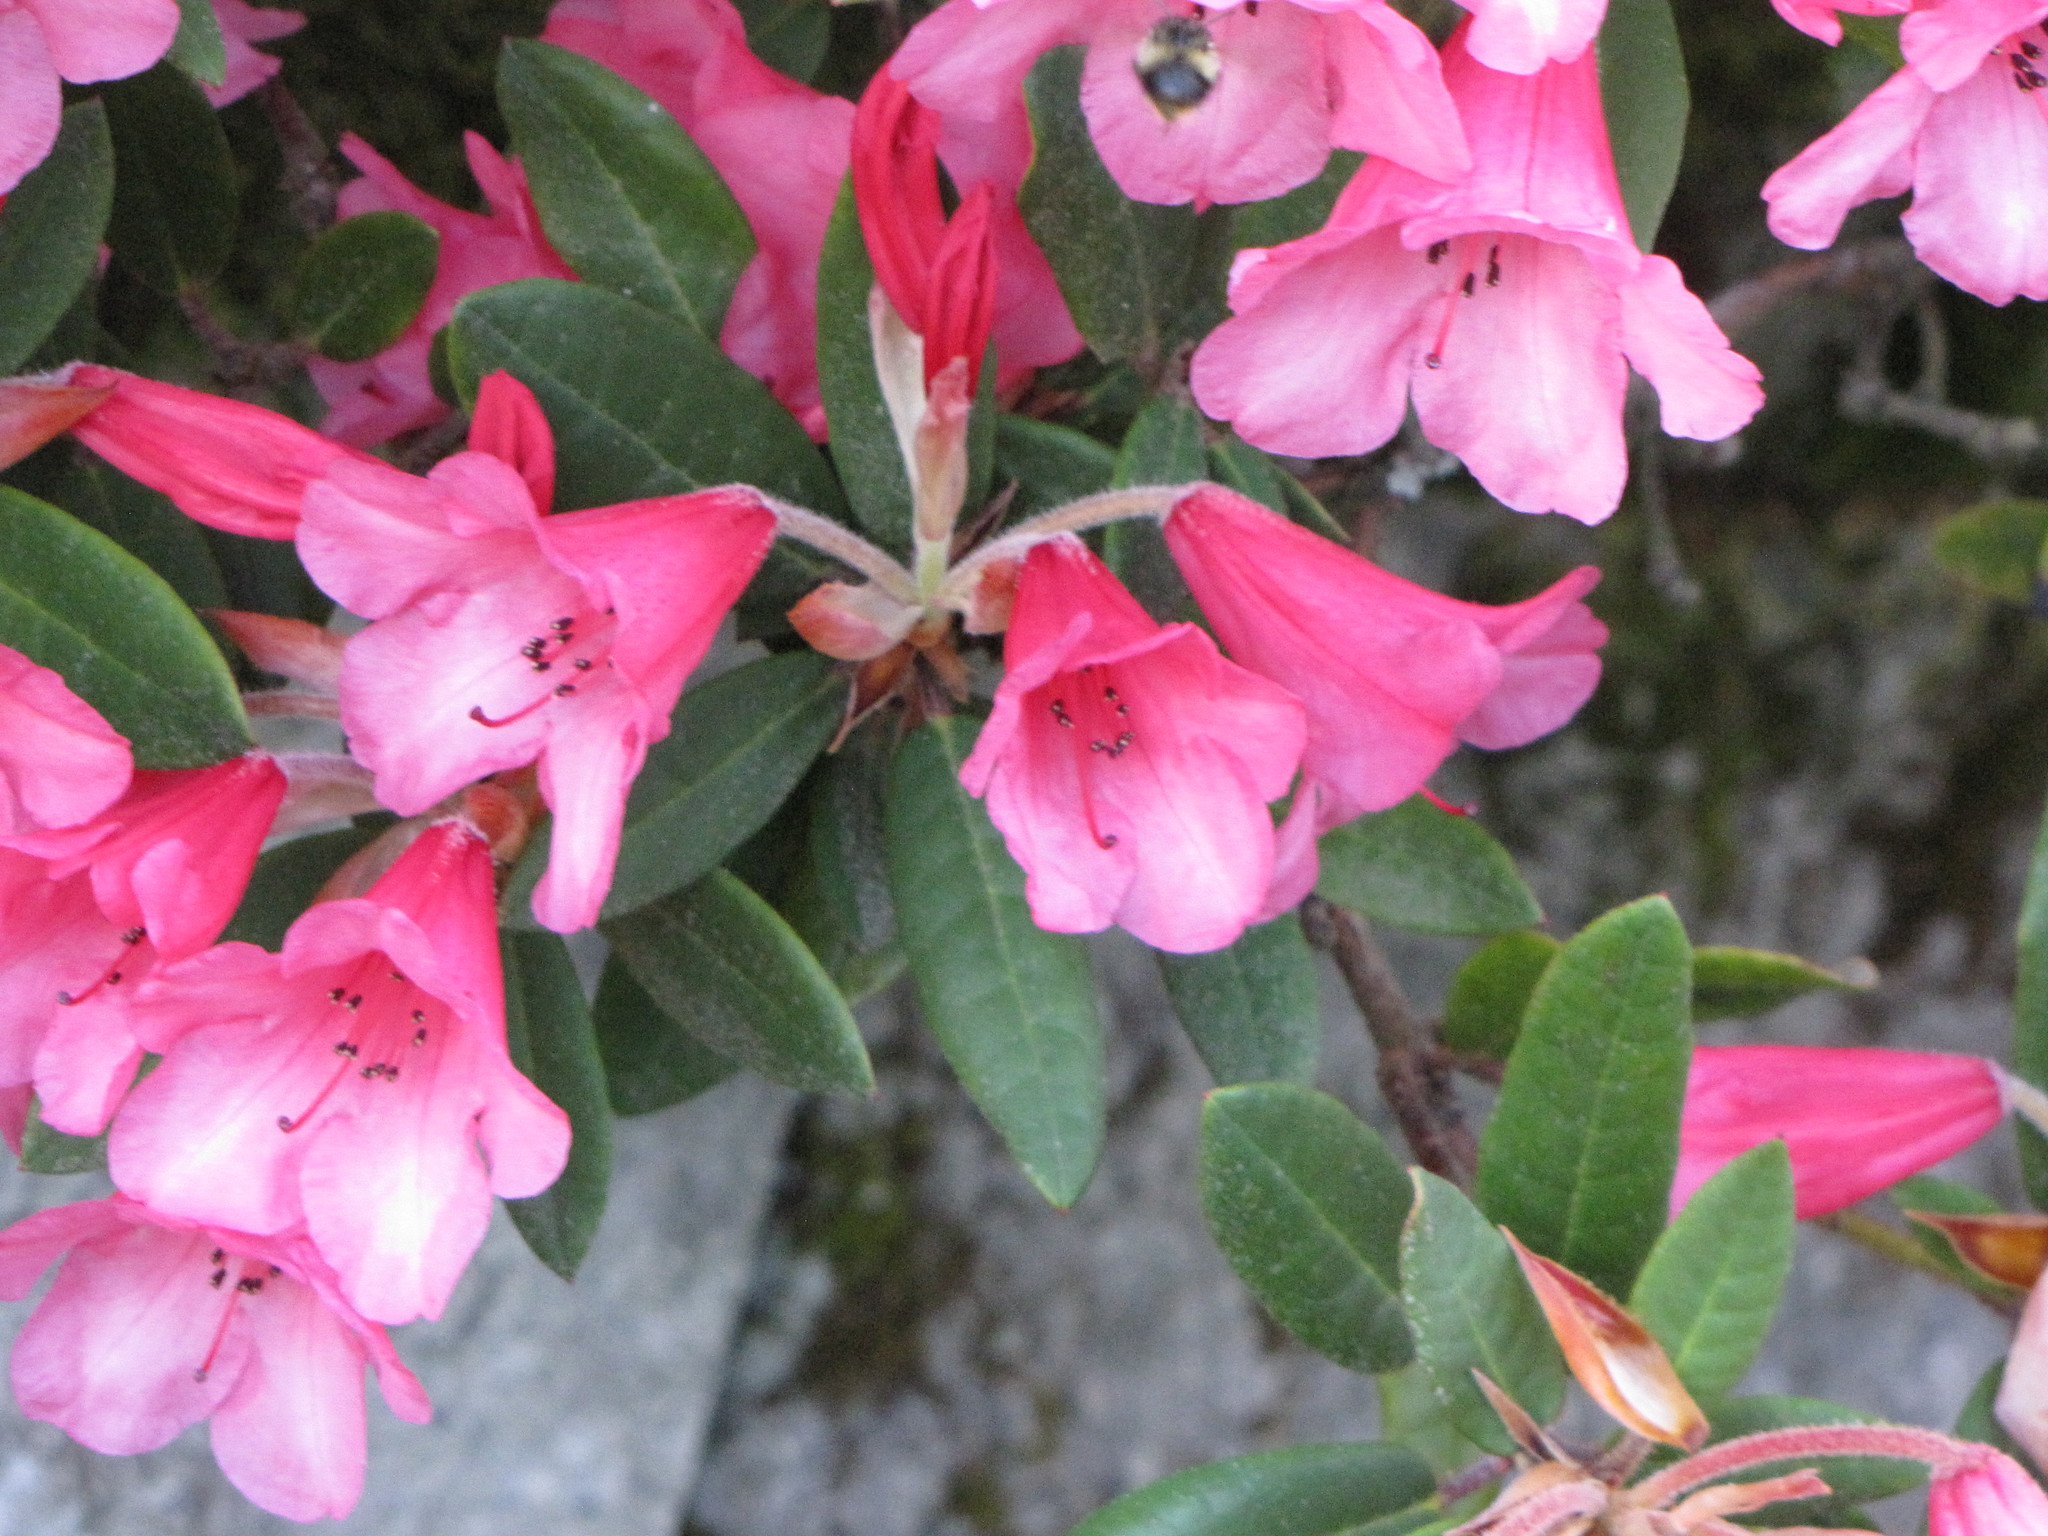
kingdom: Animalia
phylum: Arthropoda
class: Insecta
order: Hymenoptera
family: Apidae
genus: Bombus
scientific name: Bombus sitkensis
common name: Sitka bumble bee
